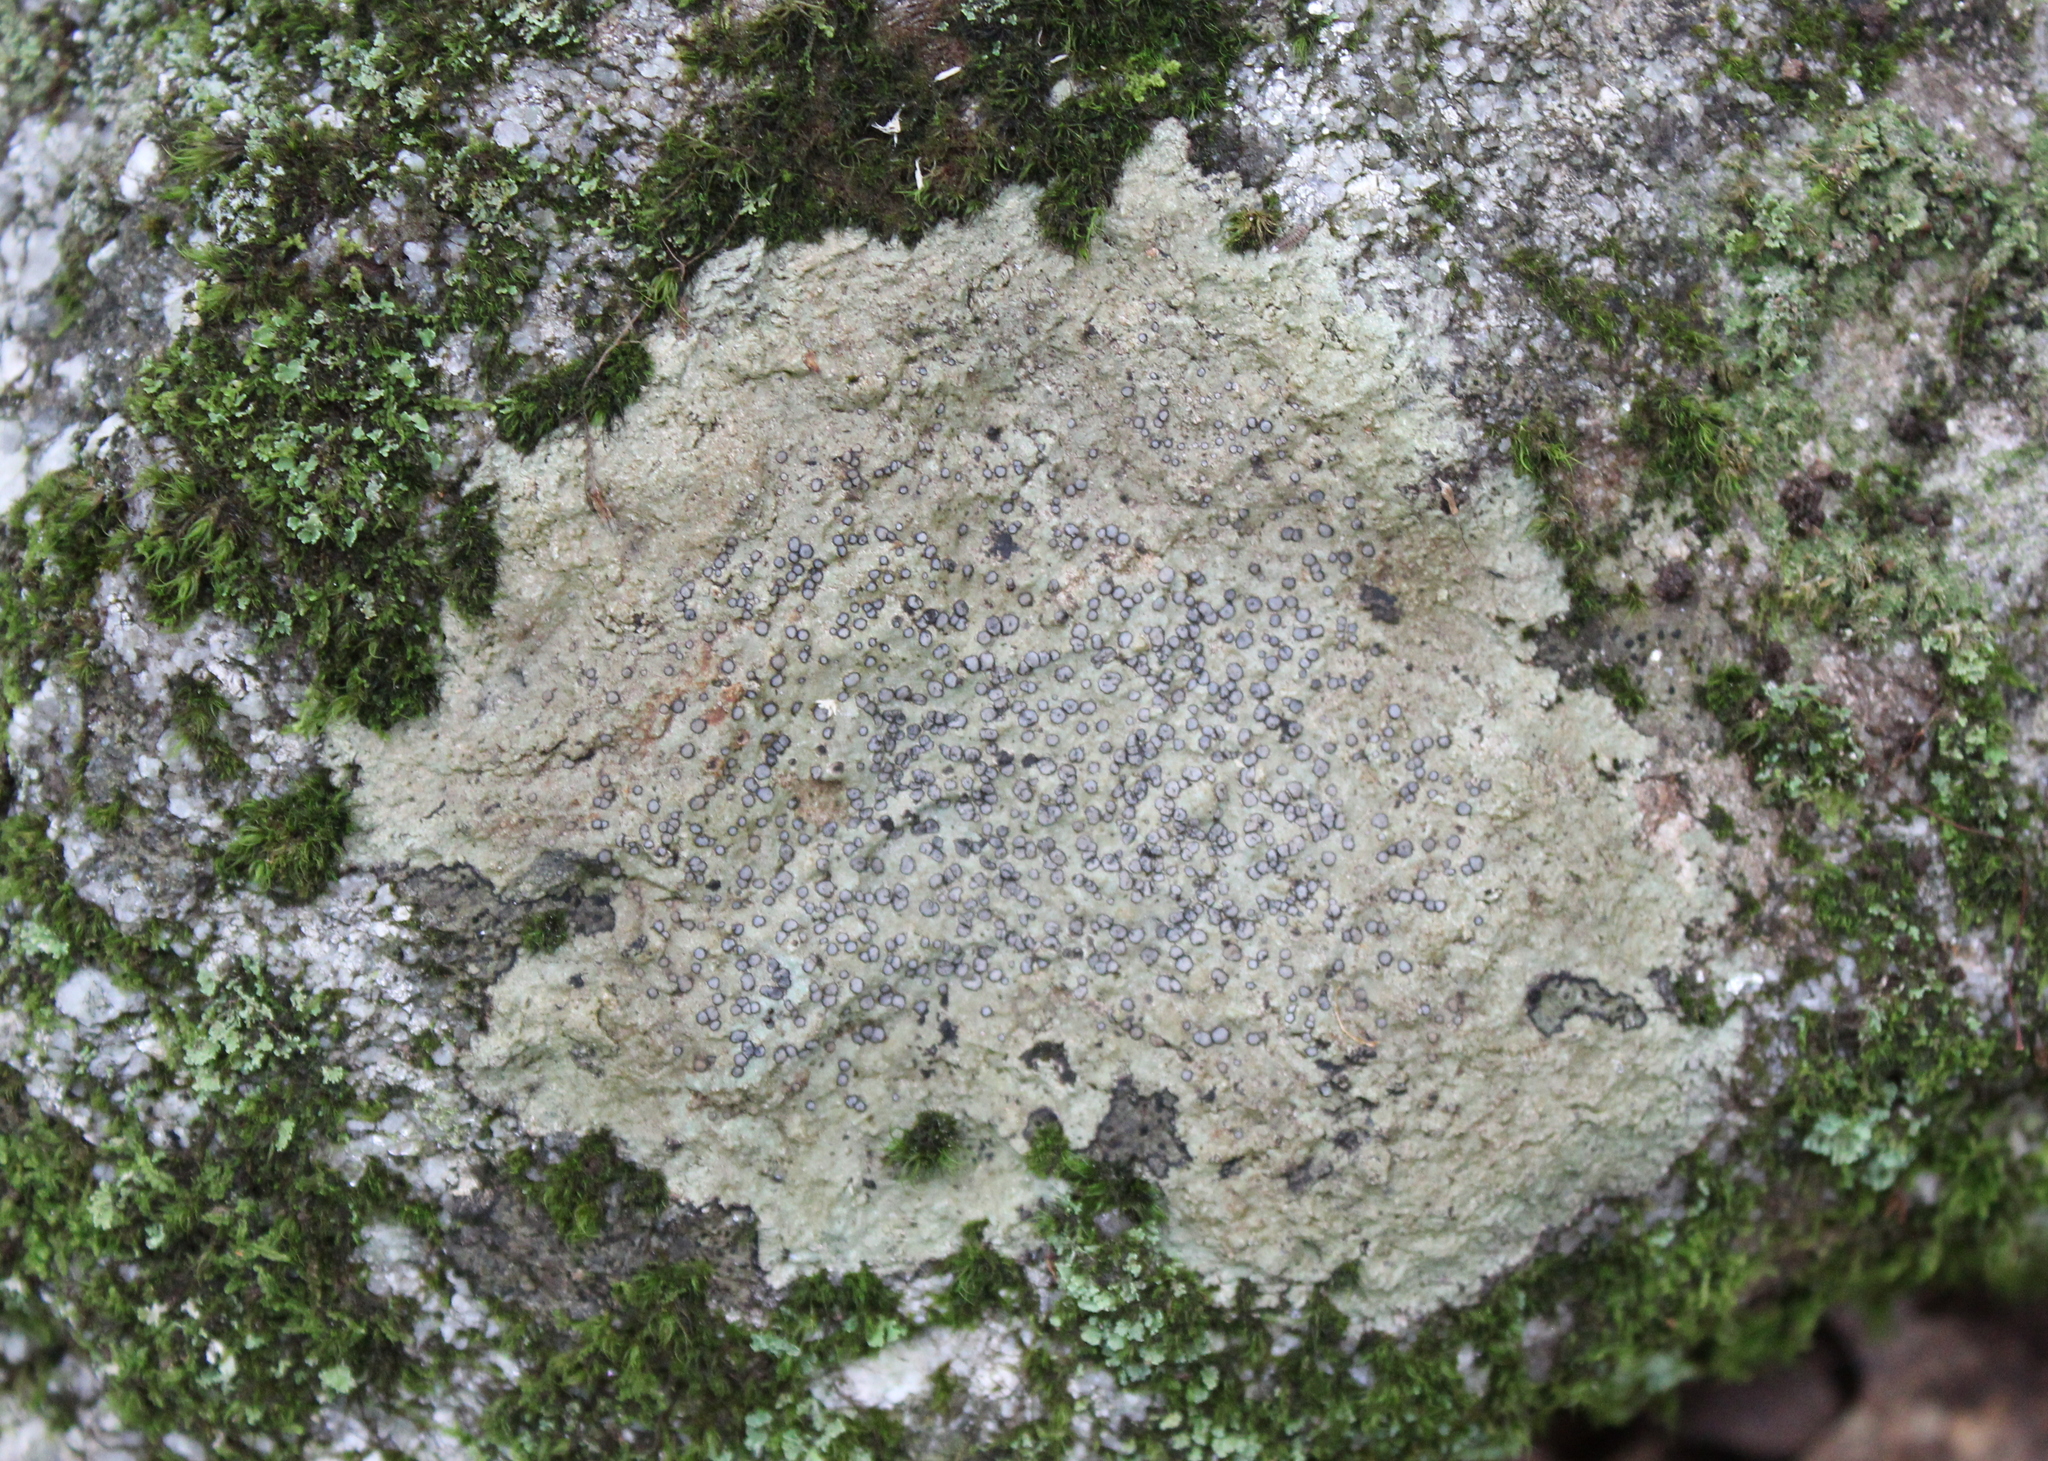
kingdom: Fungi
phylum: Ascomycota
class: Lecanoromycetes
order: Lecideales
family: Lecideaceae
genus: Porpidia
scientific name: Porpidia albocaerulescens
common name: Smokey-eyed boulder lichen
